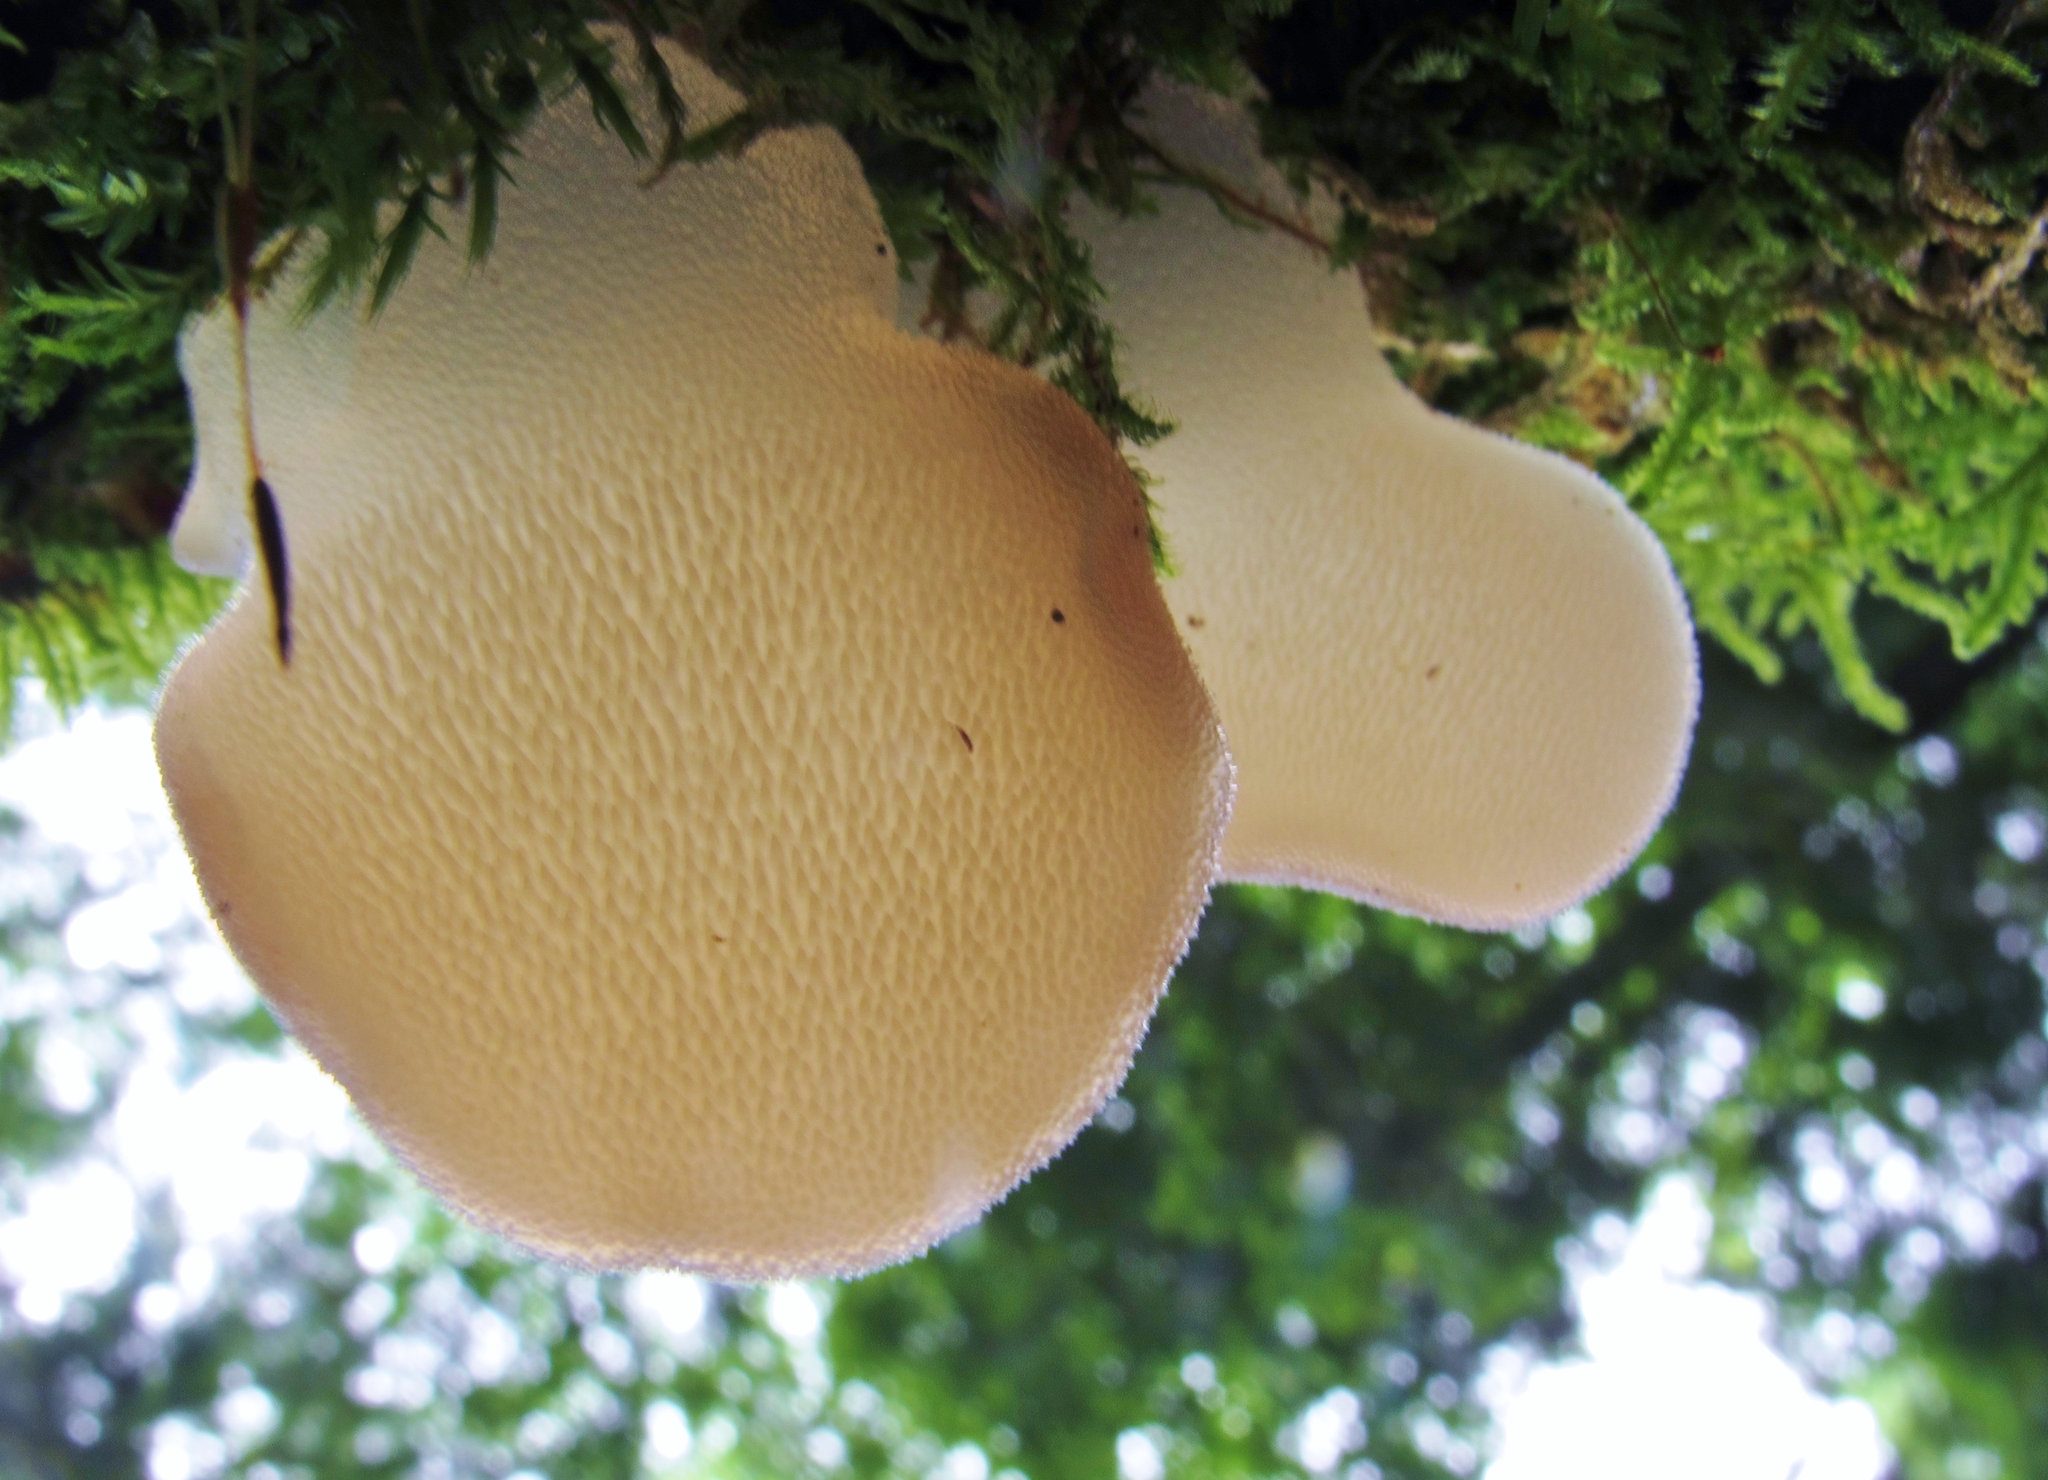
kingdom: Fungi
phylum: Basidiomycota
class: Agaricomycetes
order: Auriculariales
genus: Pseudohydnum
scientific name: Pseudohydnum gelatinosum
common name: Jelly tongue
